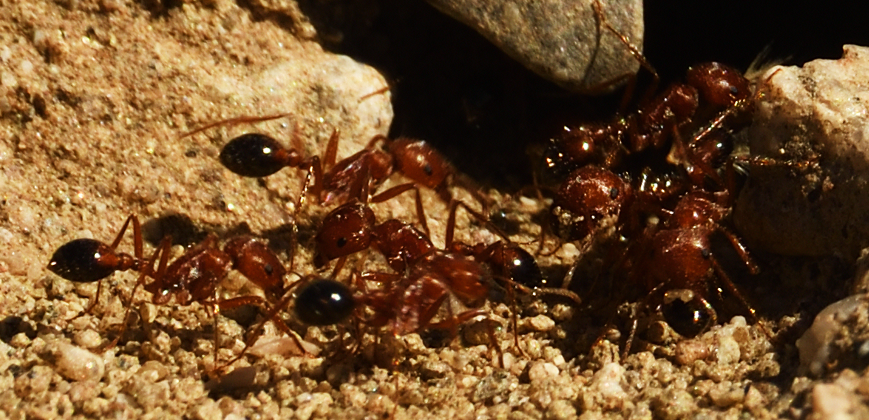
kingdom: Animalia
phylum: Arthropoda
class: Insecta
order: Hymenoptera
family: Formicidae
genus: Pogonomyrmex
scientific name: Pogonomyrmex californicus
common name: California harvester ant
